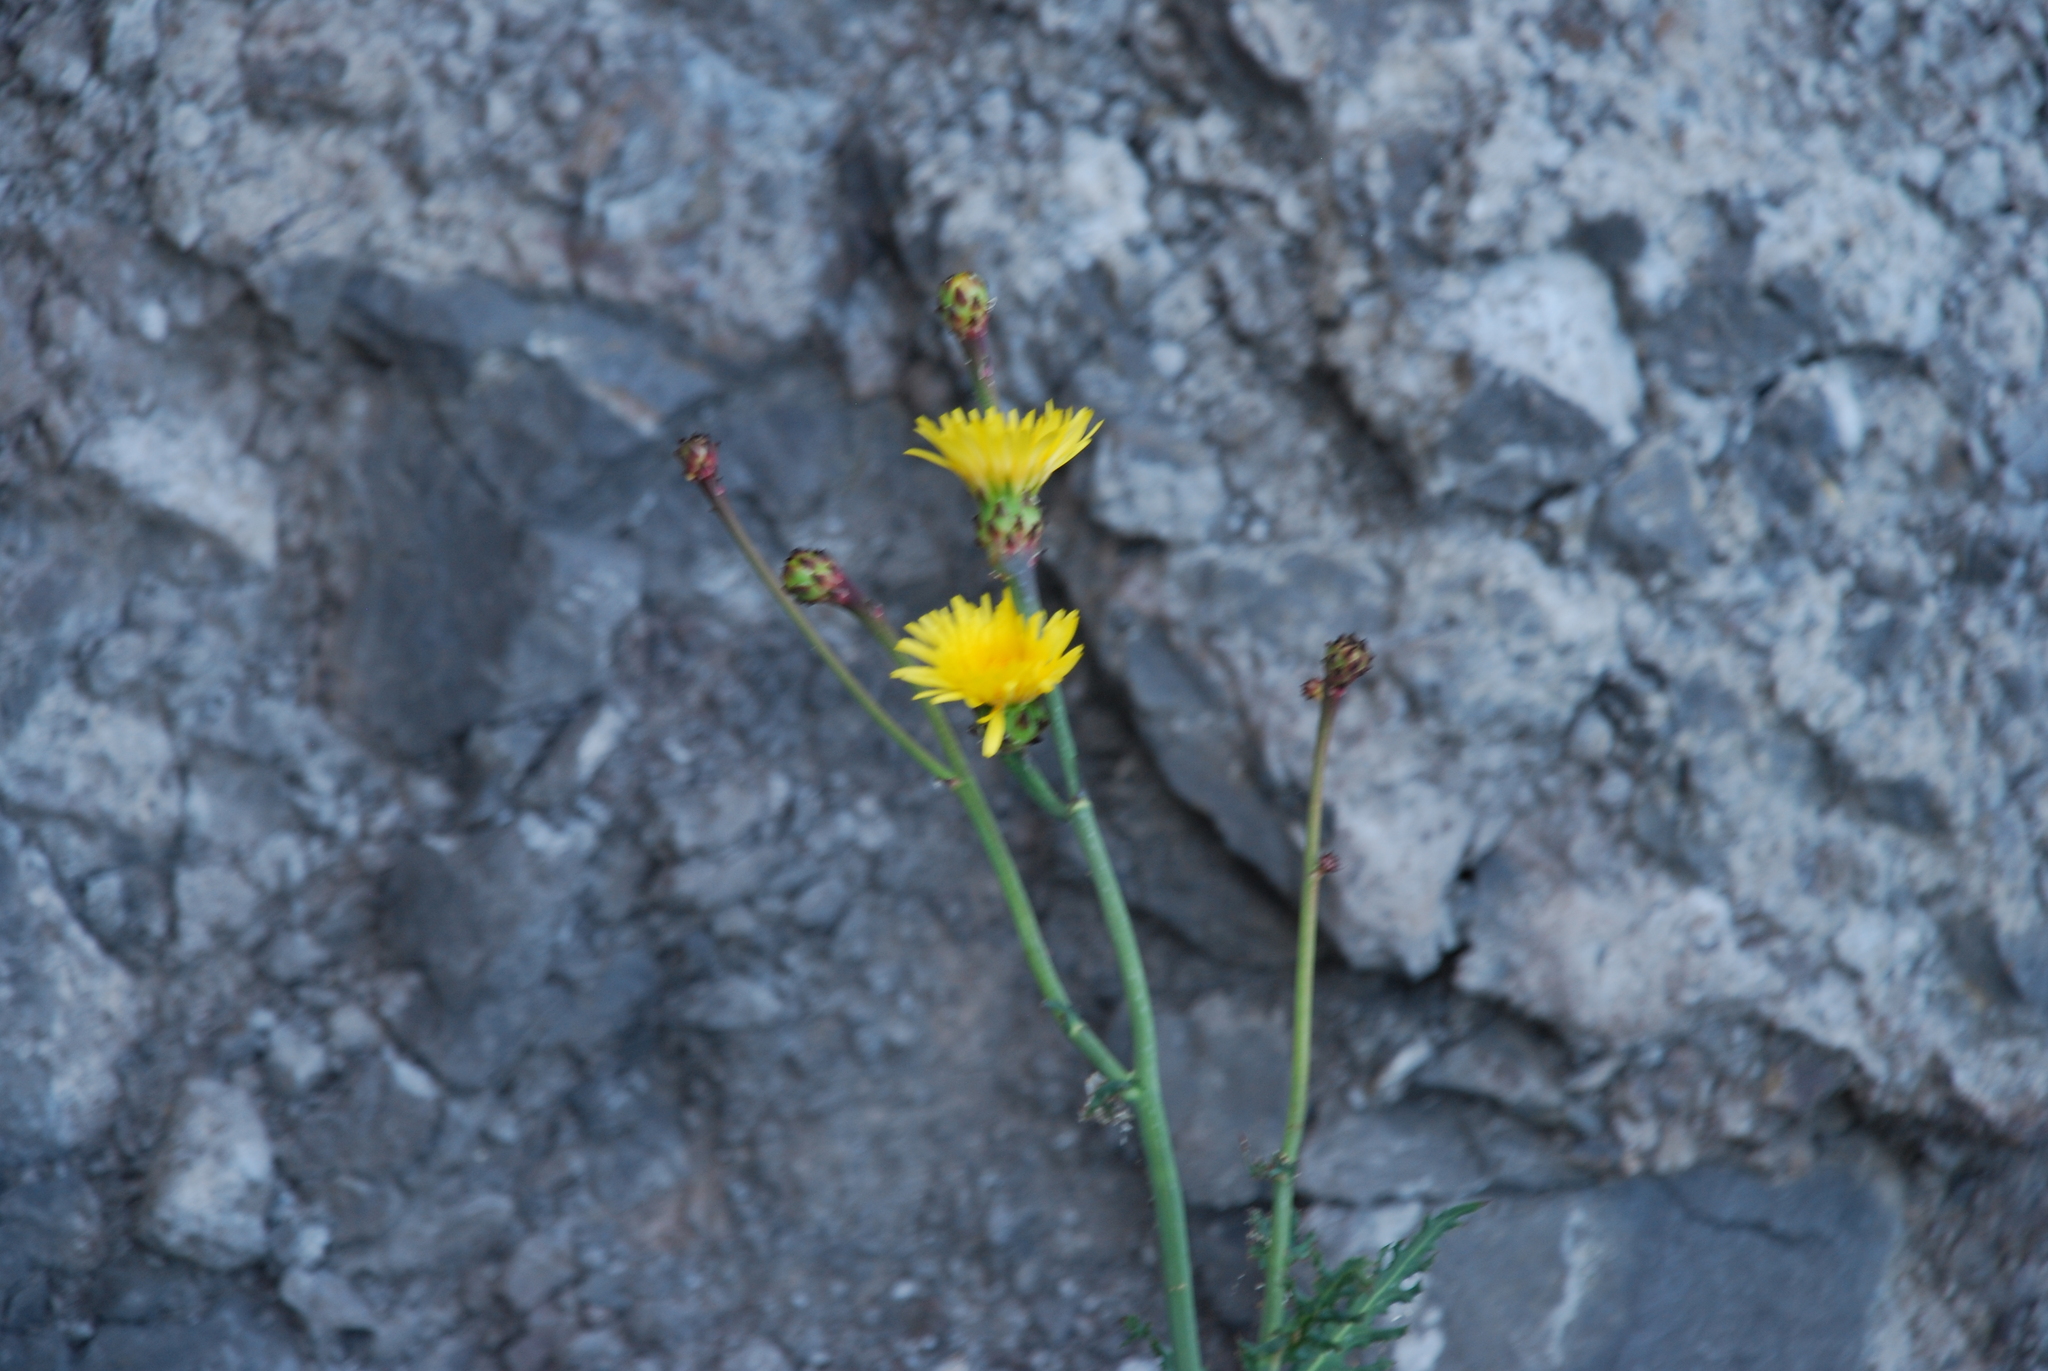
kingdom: Plantae
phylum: Tracheophyta
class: Magnoliopsida
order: Asterales
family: Asteraceae
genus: Reichardia
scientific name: Reichardia ligulata
